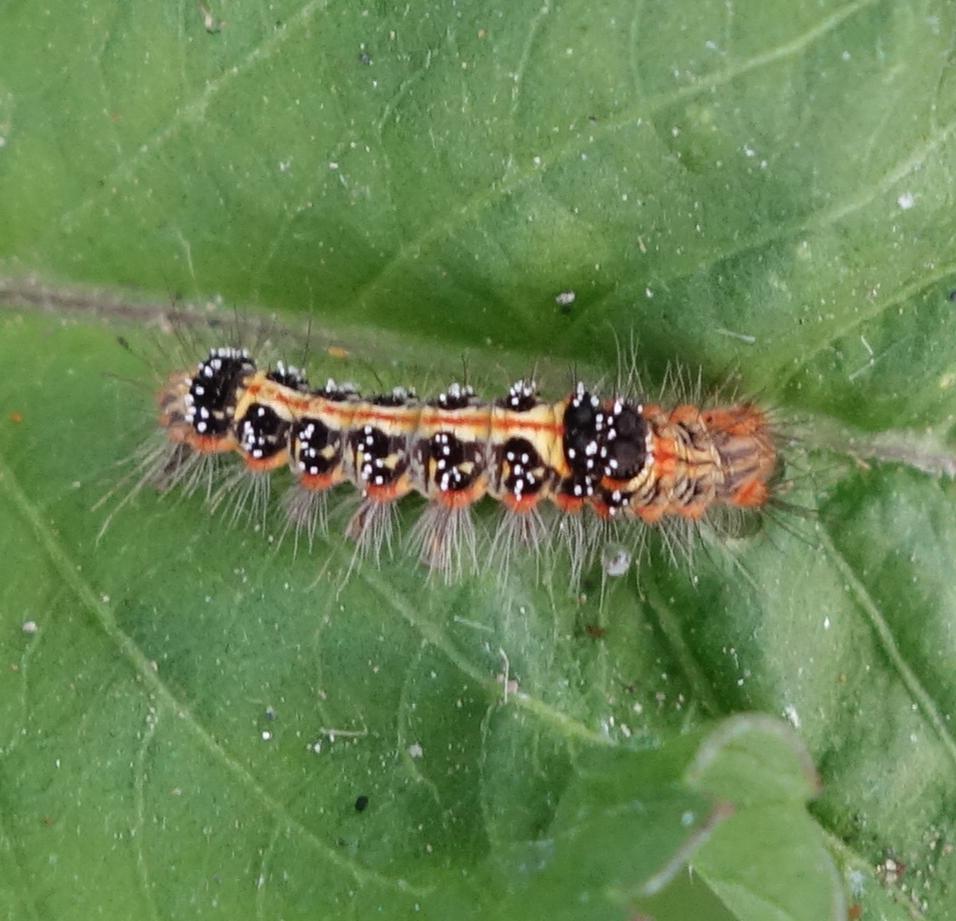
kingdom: Animalia
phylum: Arthropoda
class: Insecta
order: Lepidoptera
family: Erebidae
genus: Euproctis
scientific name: Euproctis taiwana
